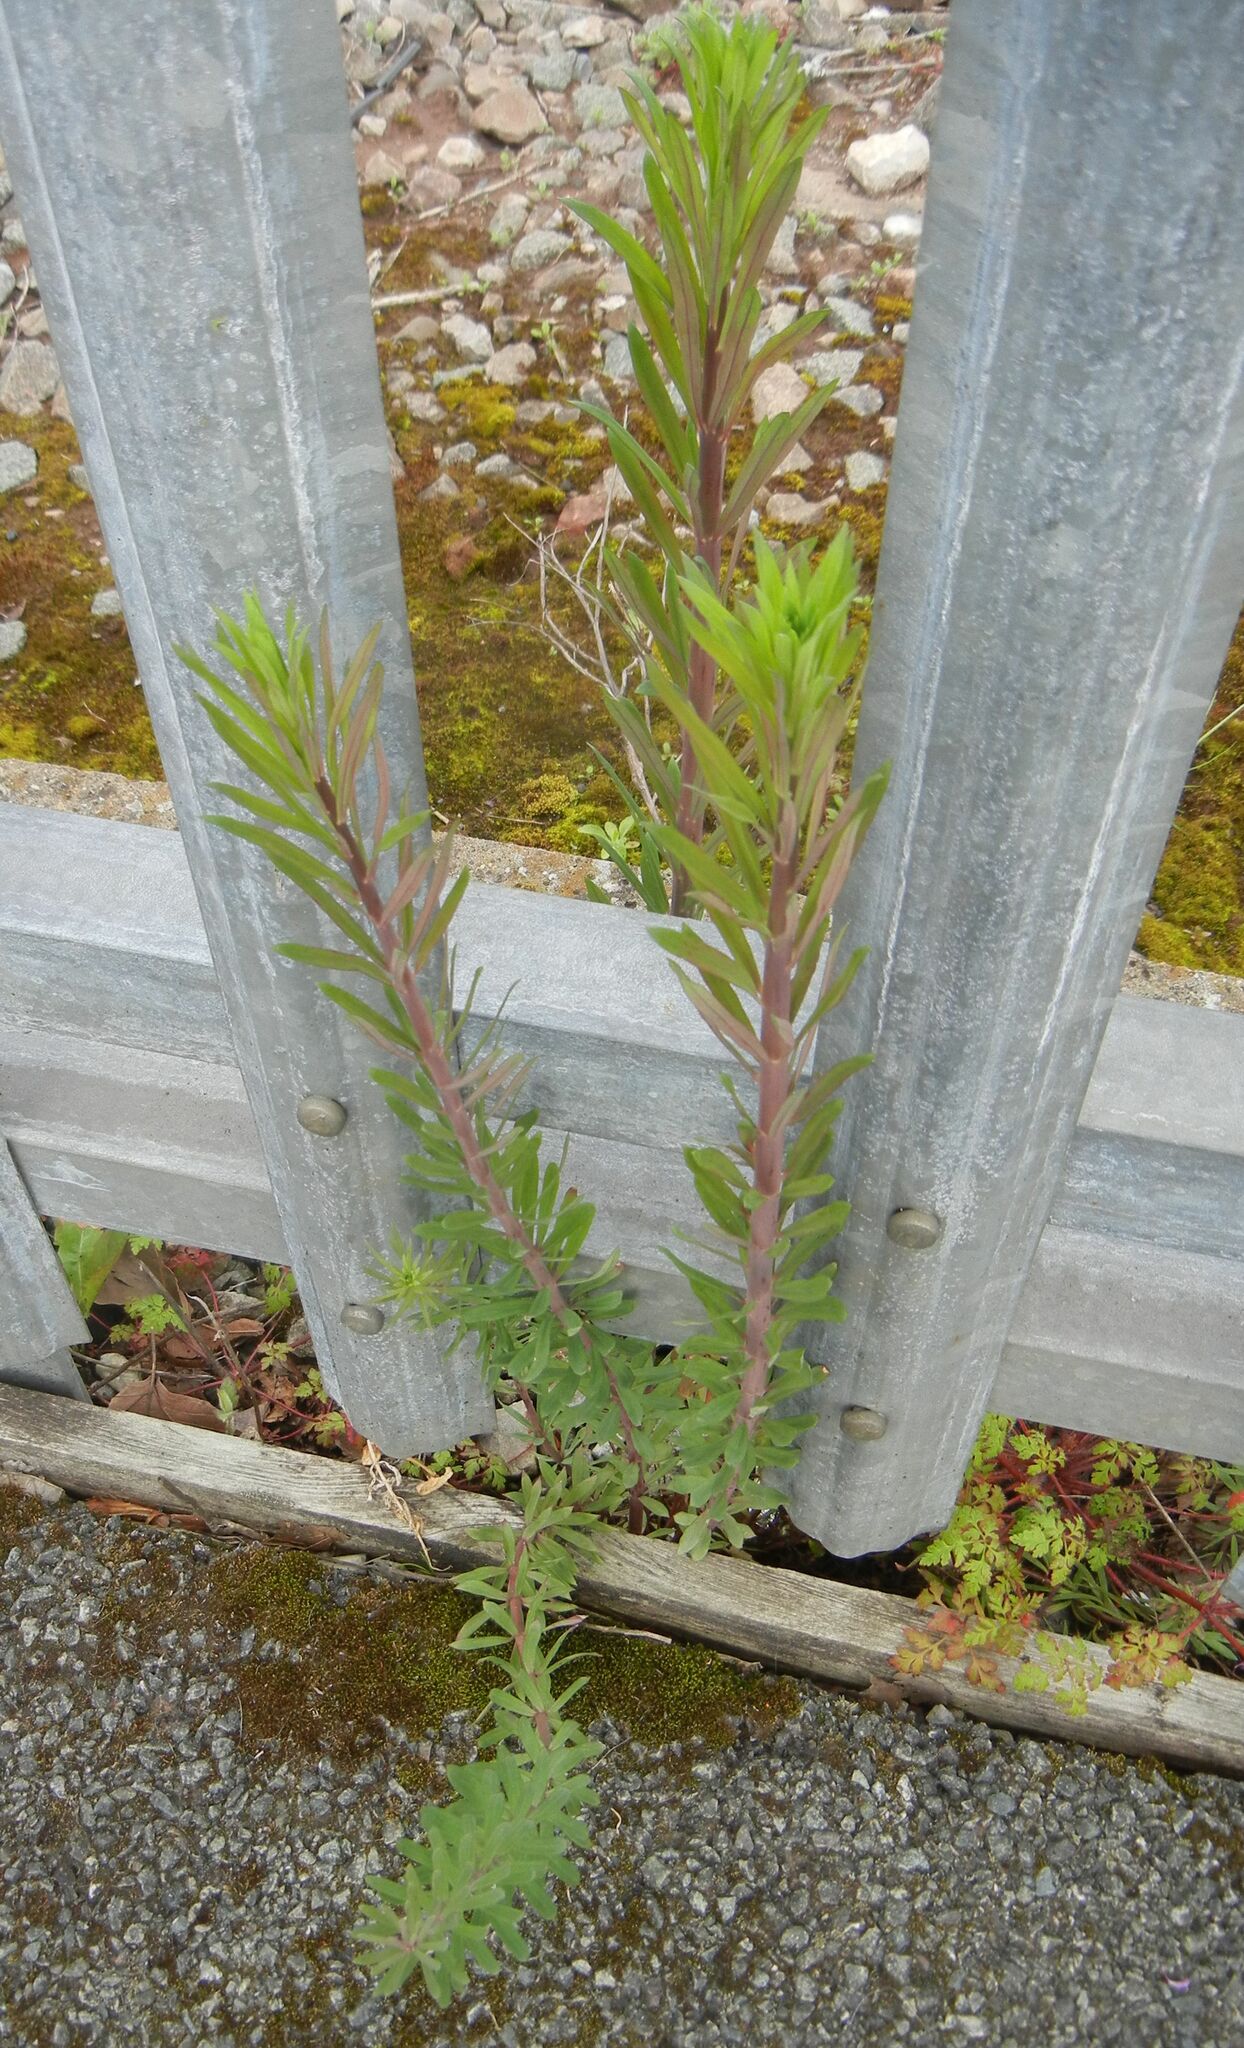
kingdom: Plantae
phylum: Tracheophyta
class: Magnoliopsida
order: Lamiales
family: Plantaginaceae
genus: Linaria
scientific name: Linaria purpurea
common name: Purple toadflax
